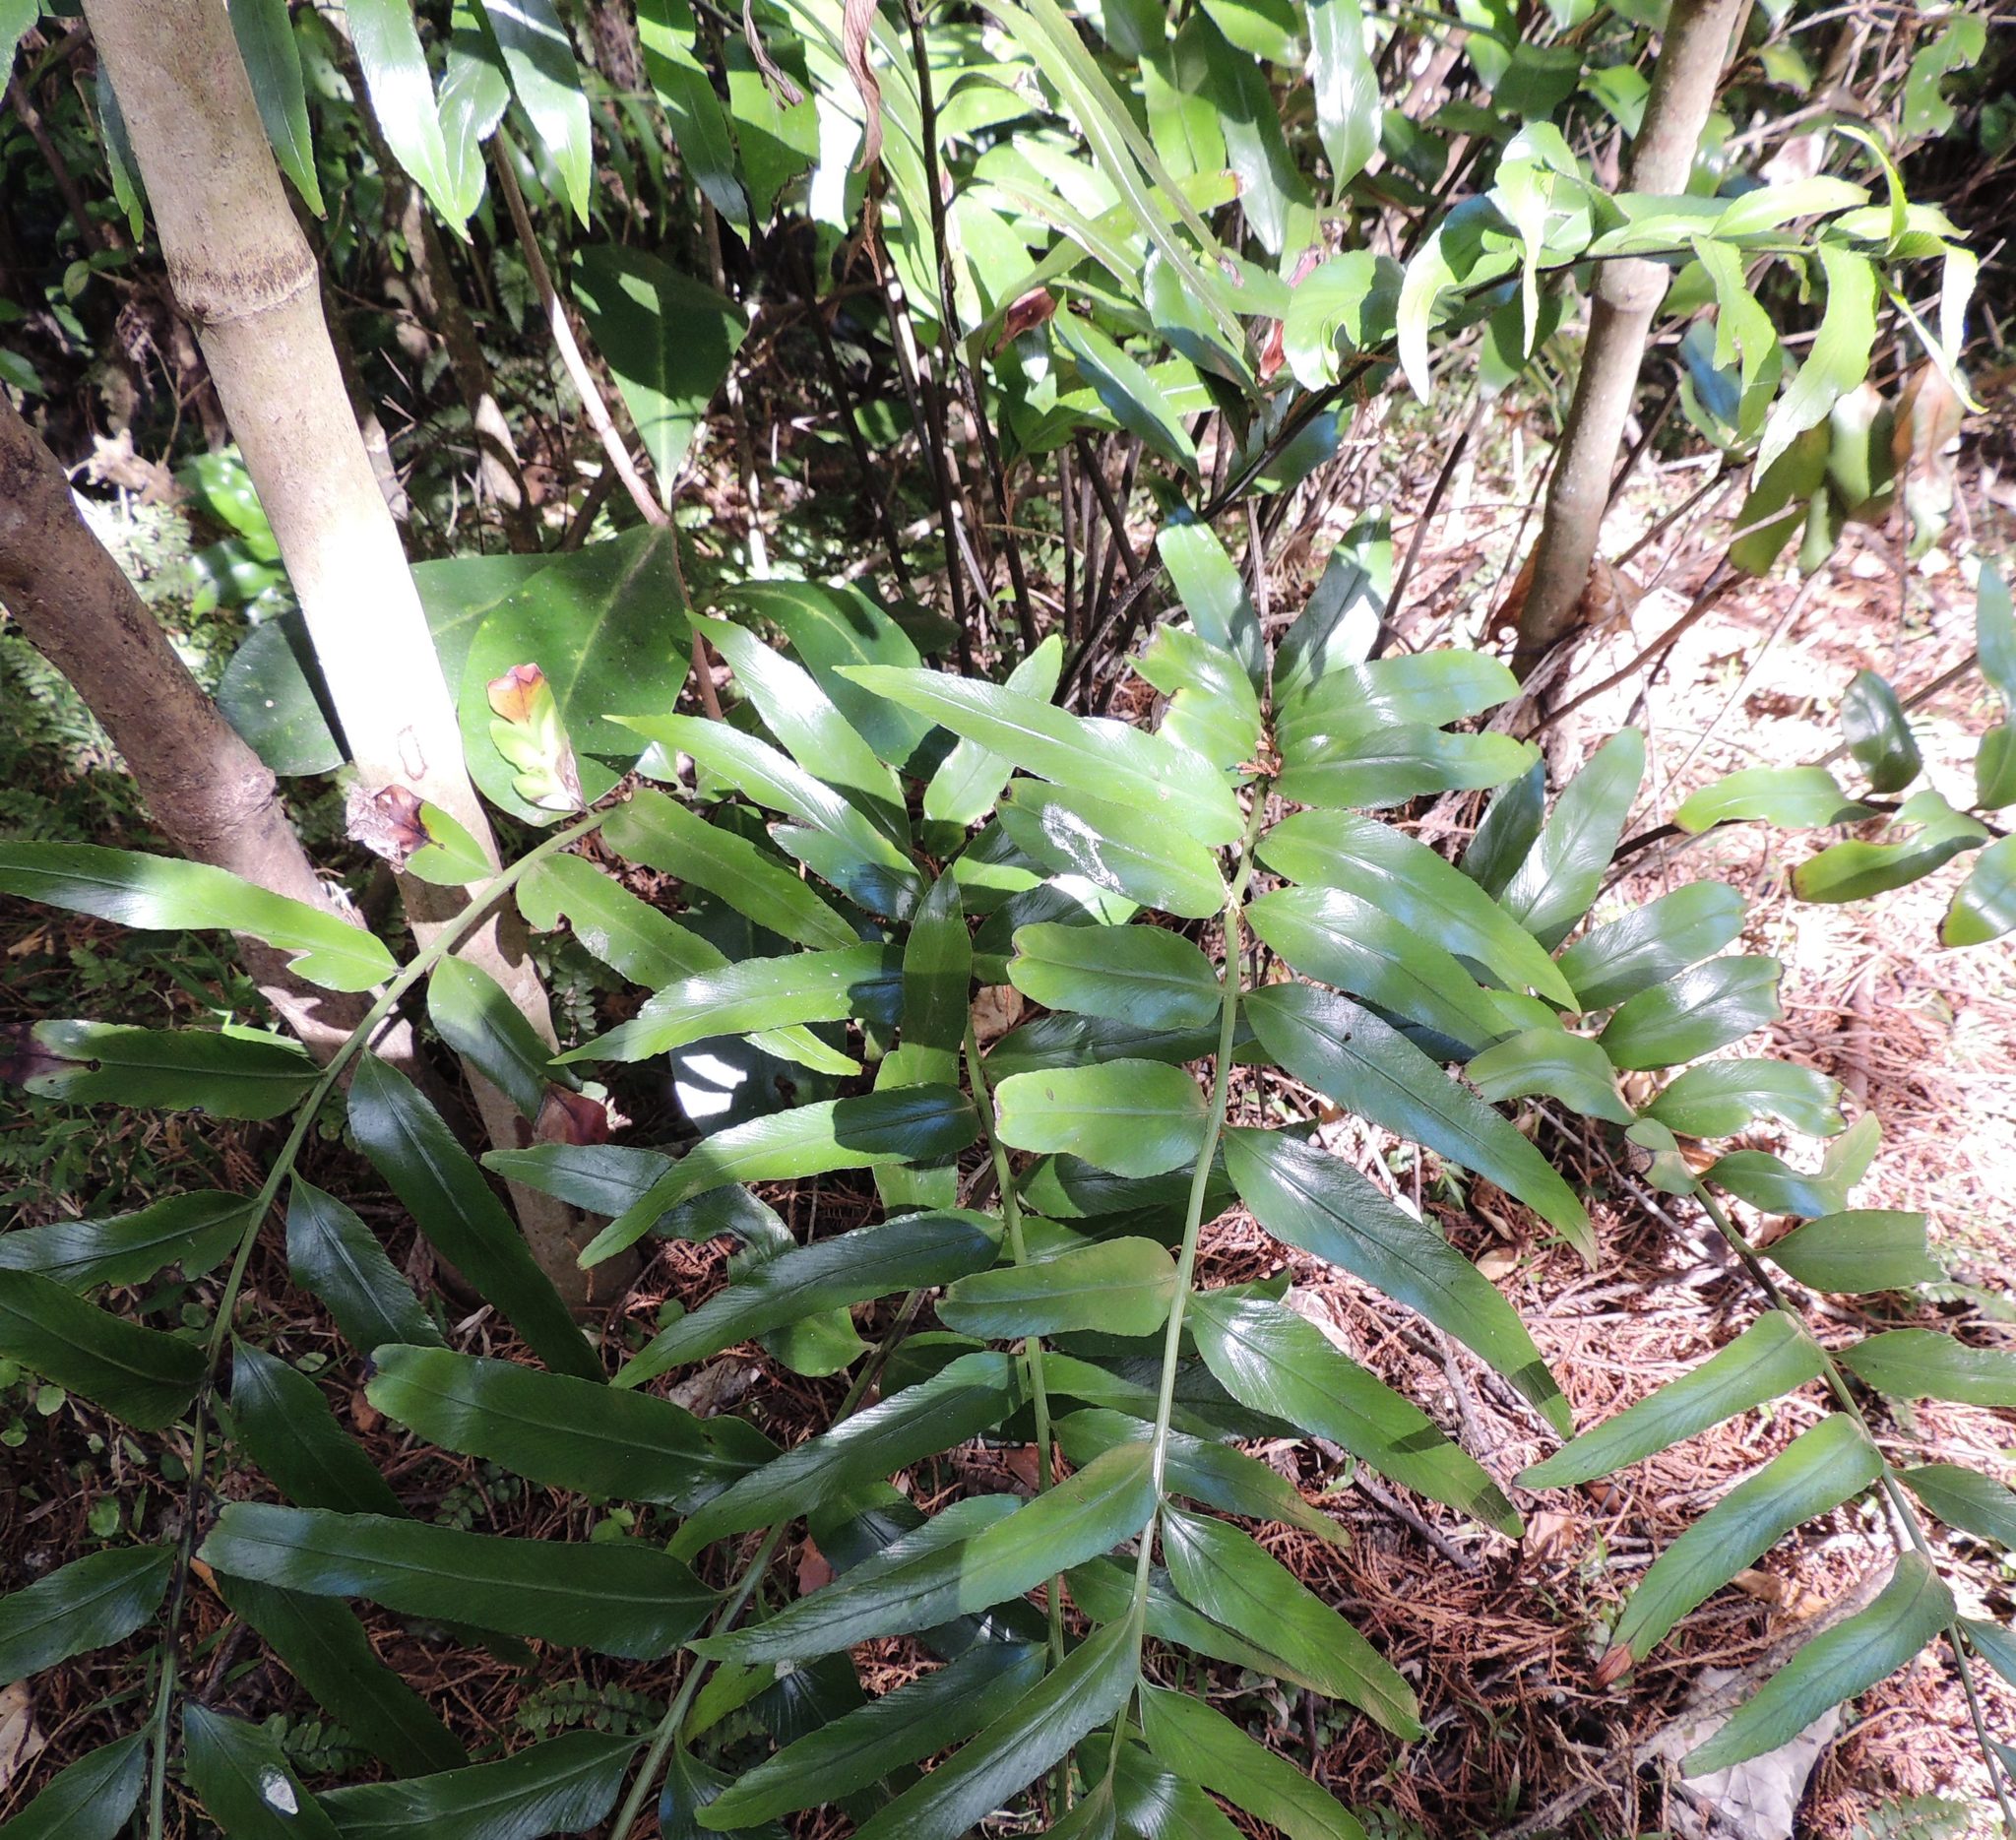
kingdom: Plantae
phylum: Tracheophyta
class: Polypodiopsida
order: Polypodiales
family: Aspleniaceae
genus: Asplenium
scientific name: Asplenium oblongifolium
